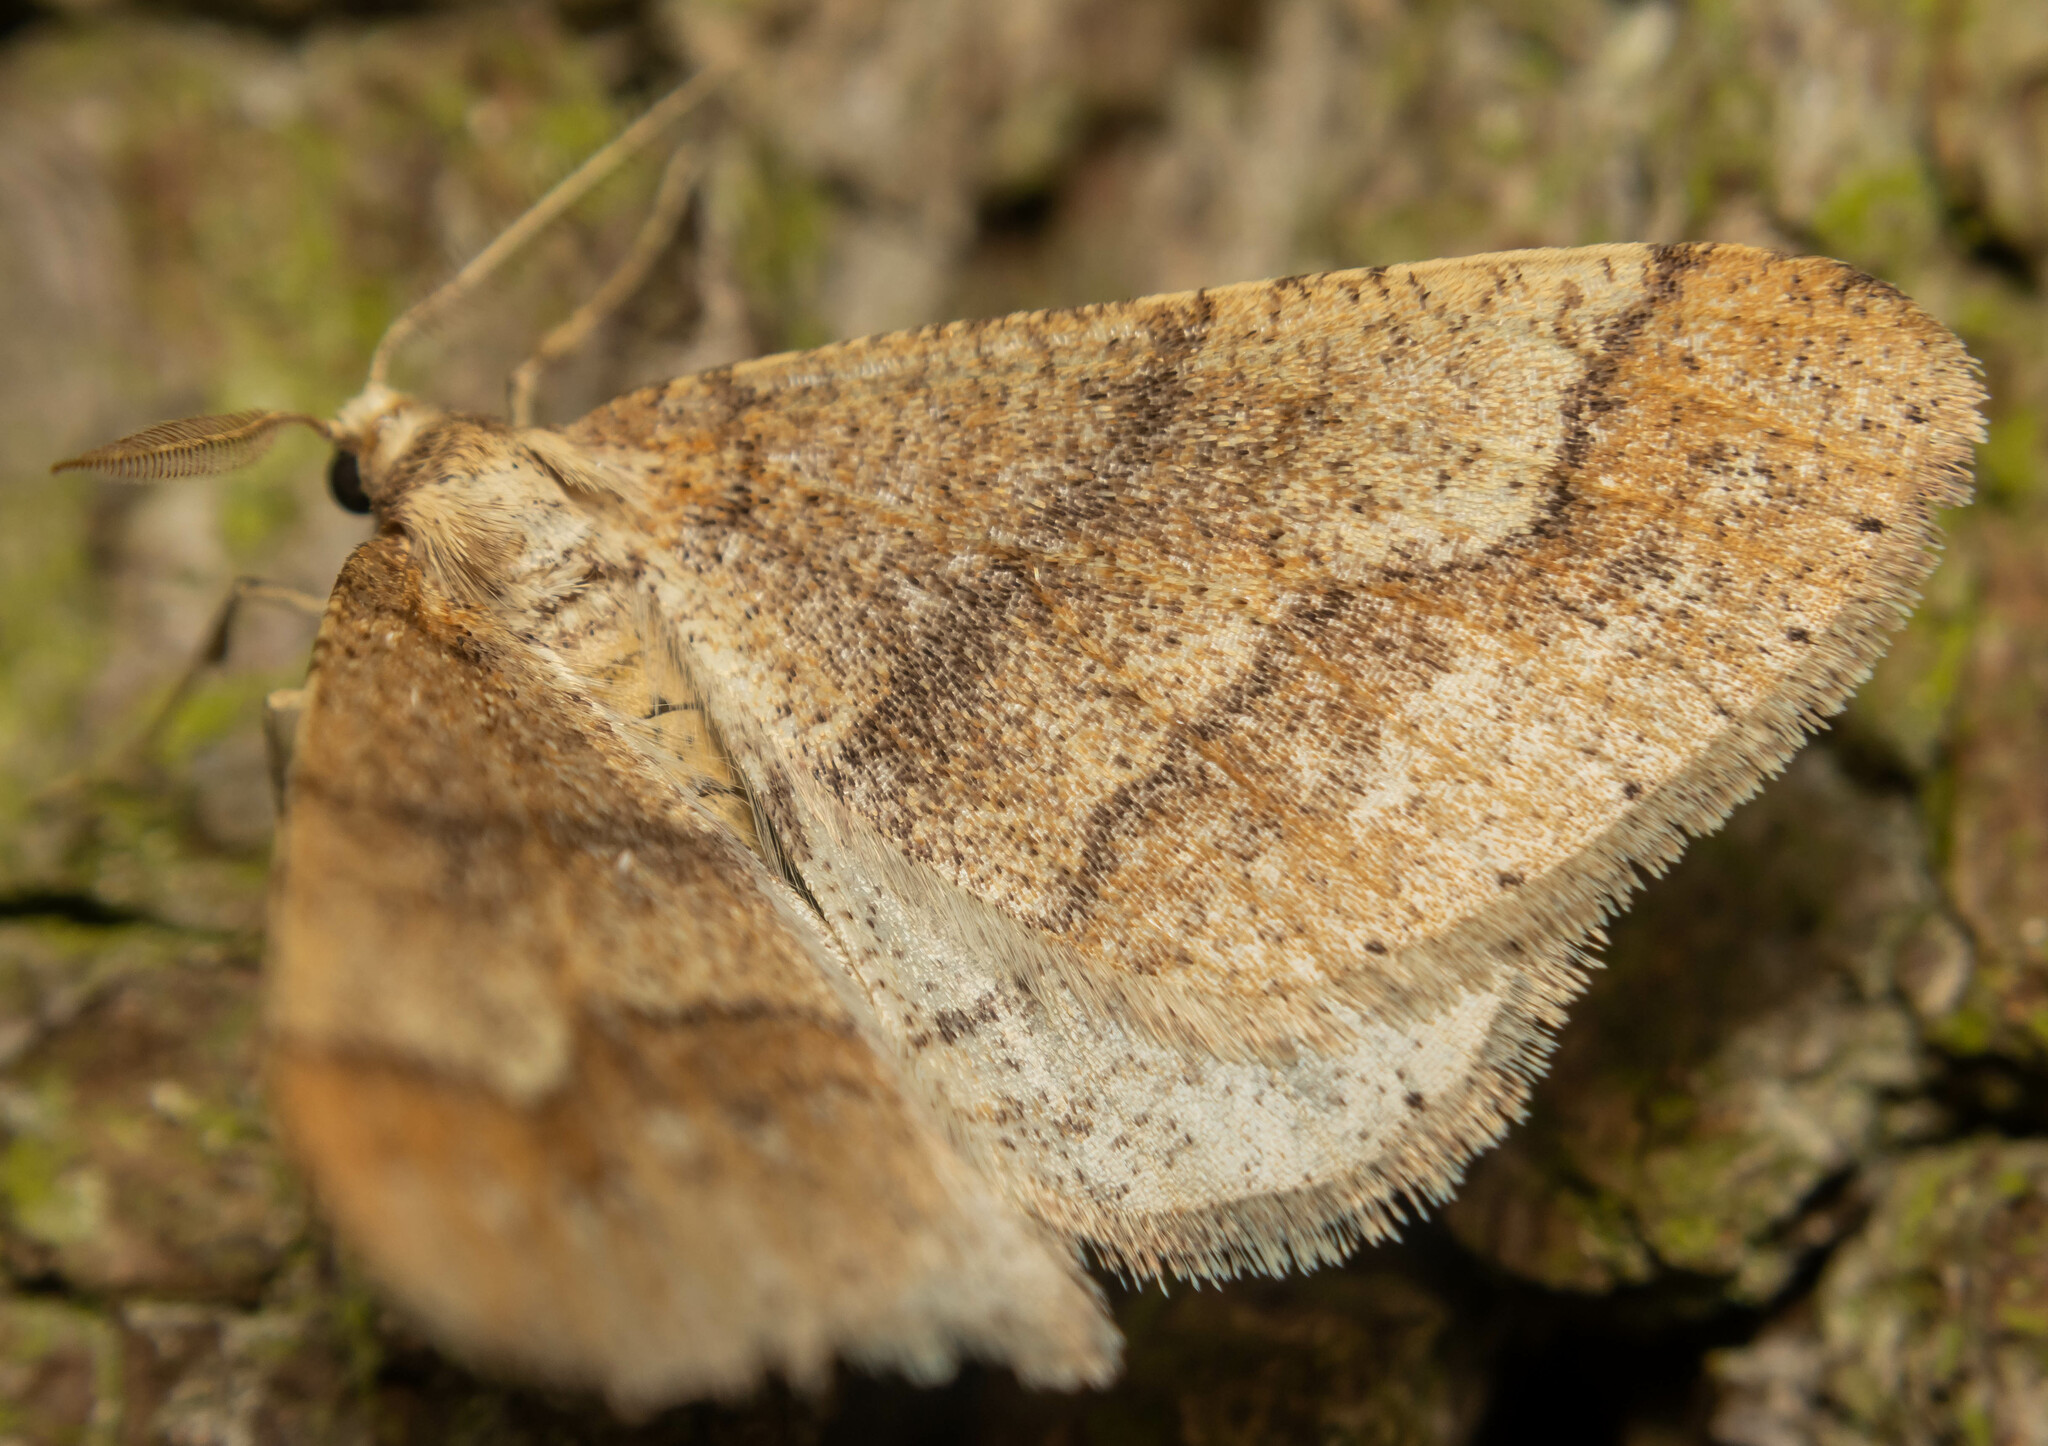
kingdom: Animalia
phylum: Arthropoda
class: Insecta
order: Lepidoptera
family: Geometridae
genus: Agriopis
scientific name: Agriopis marginaria
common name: Dotted border
